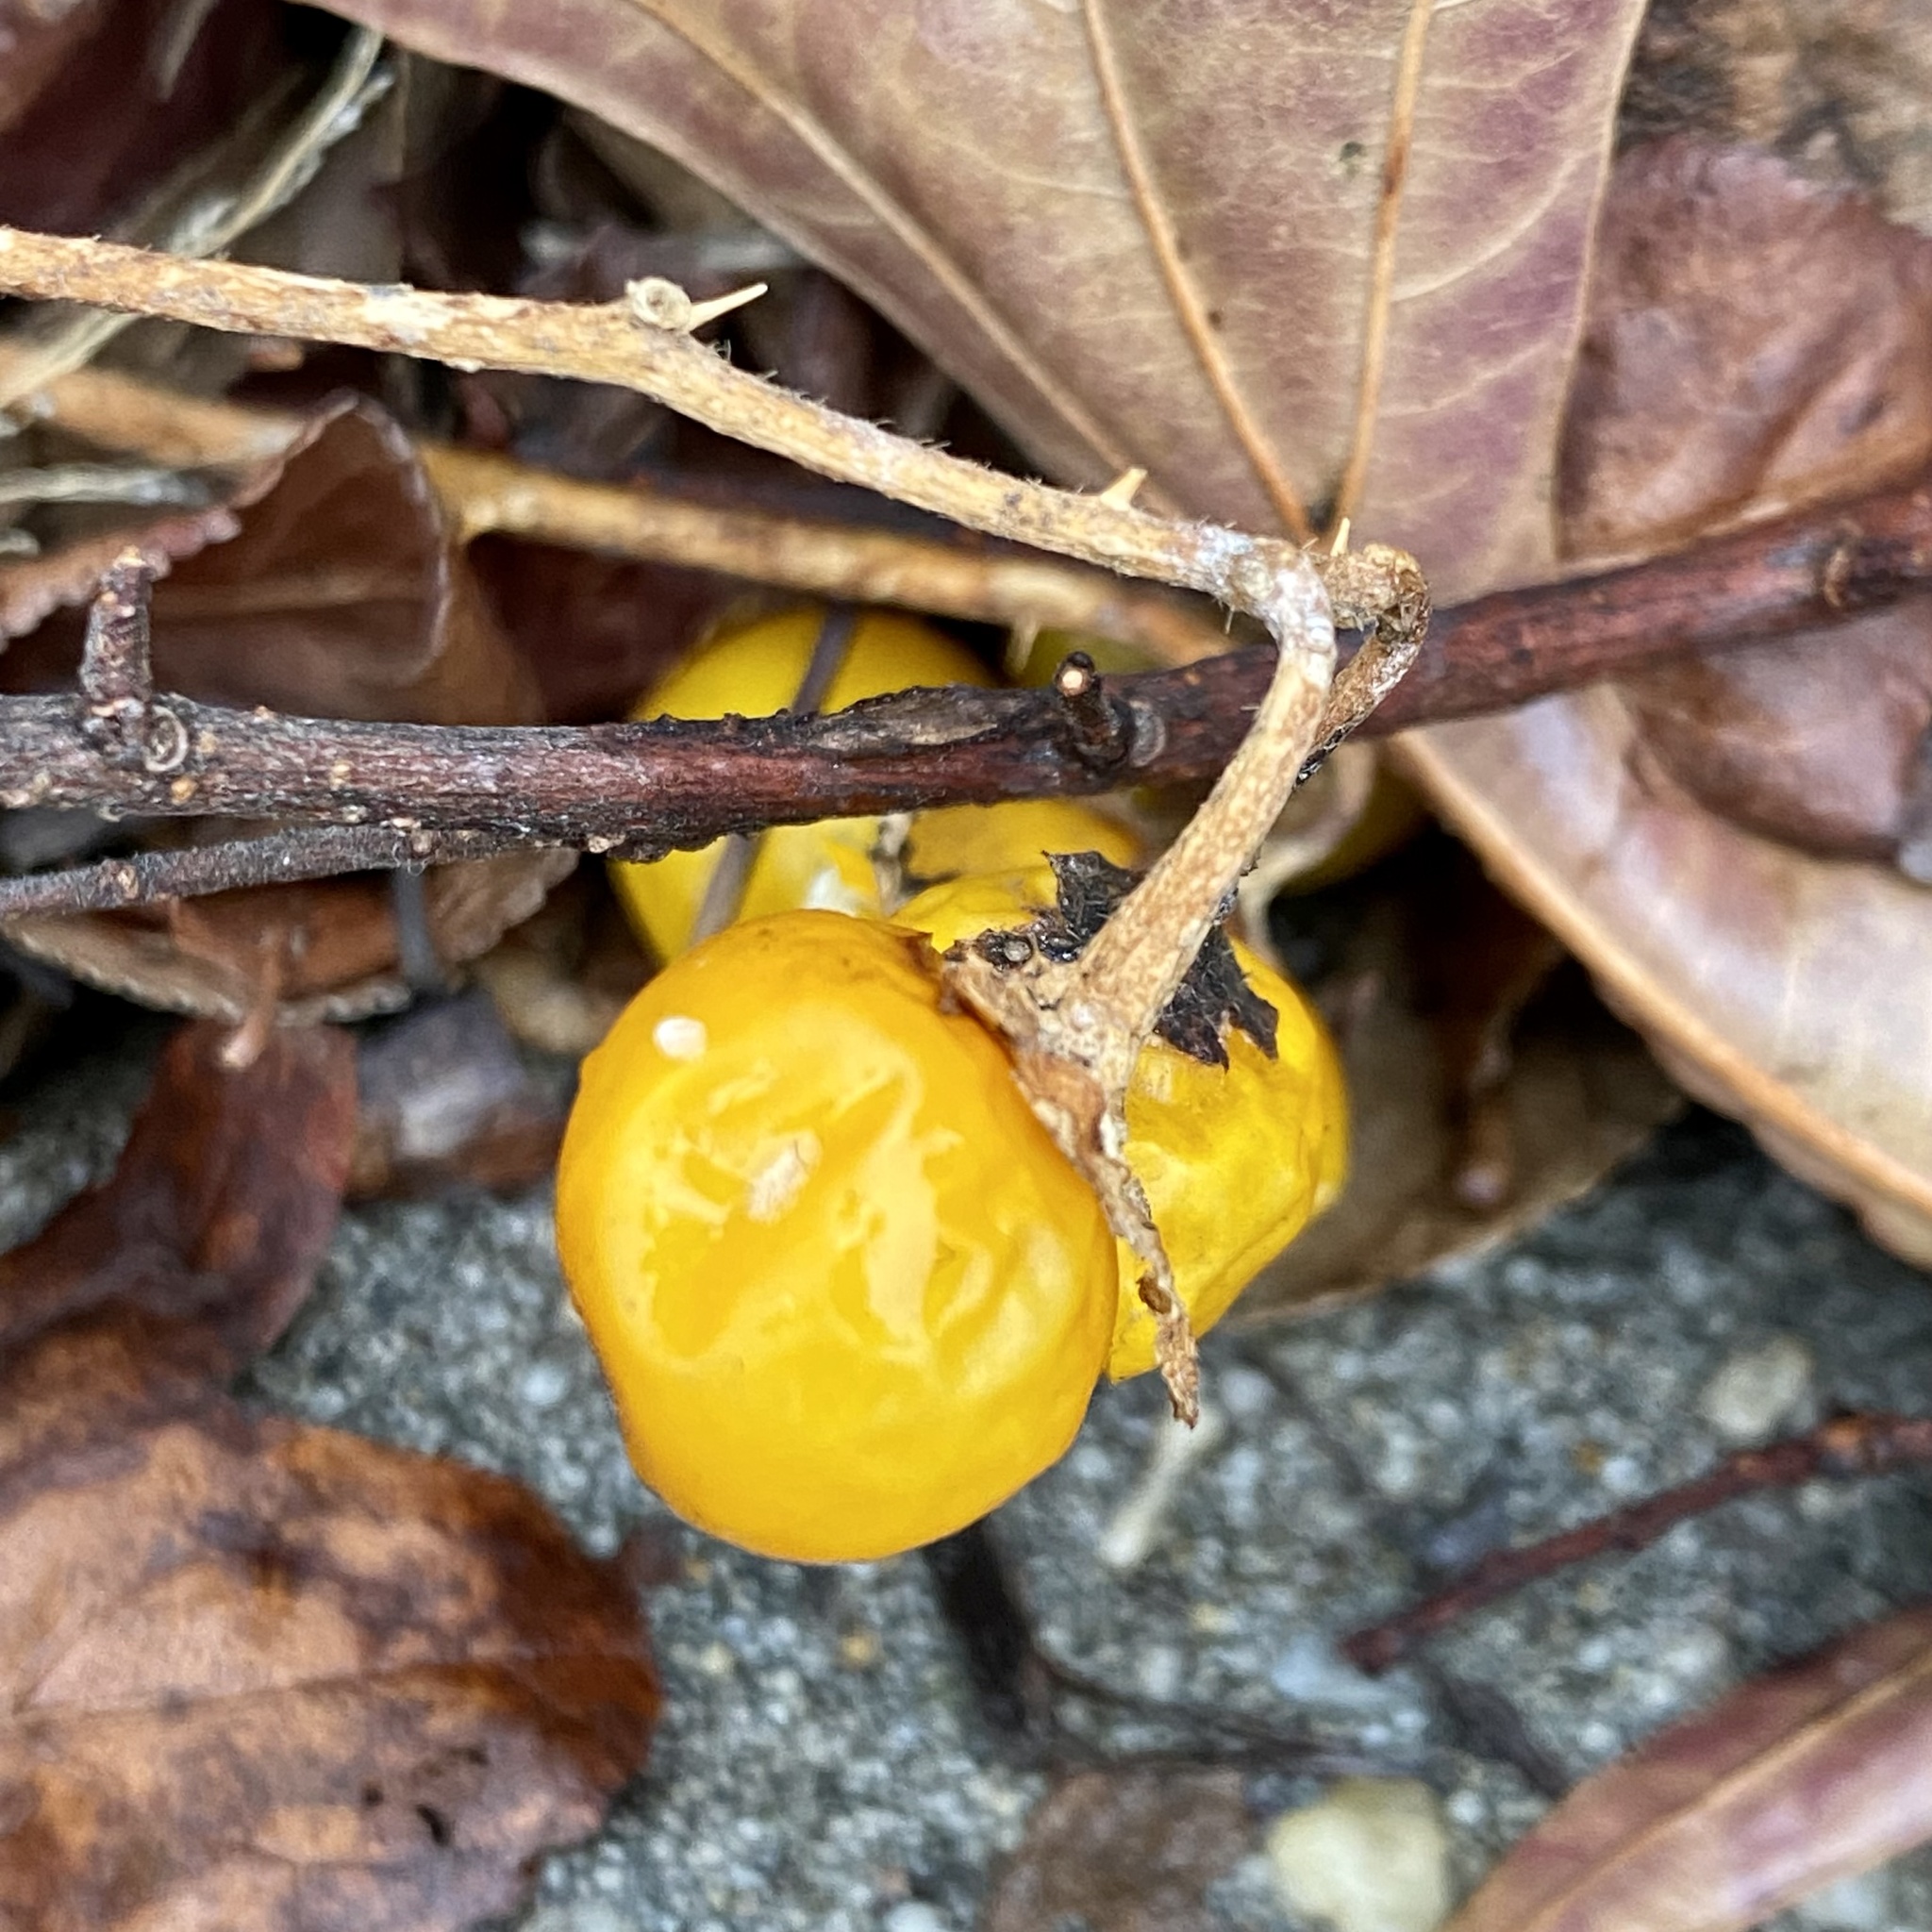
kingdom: Plantae
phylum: Tracheophyta
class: Magnoliopsida
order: Solanales
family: Solanaceae
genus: Solanum
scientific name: Solanum carolinense
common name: Horse-nettle
